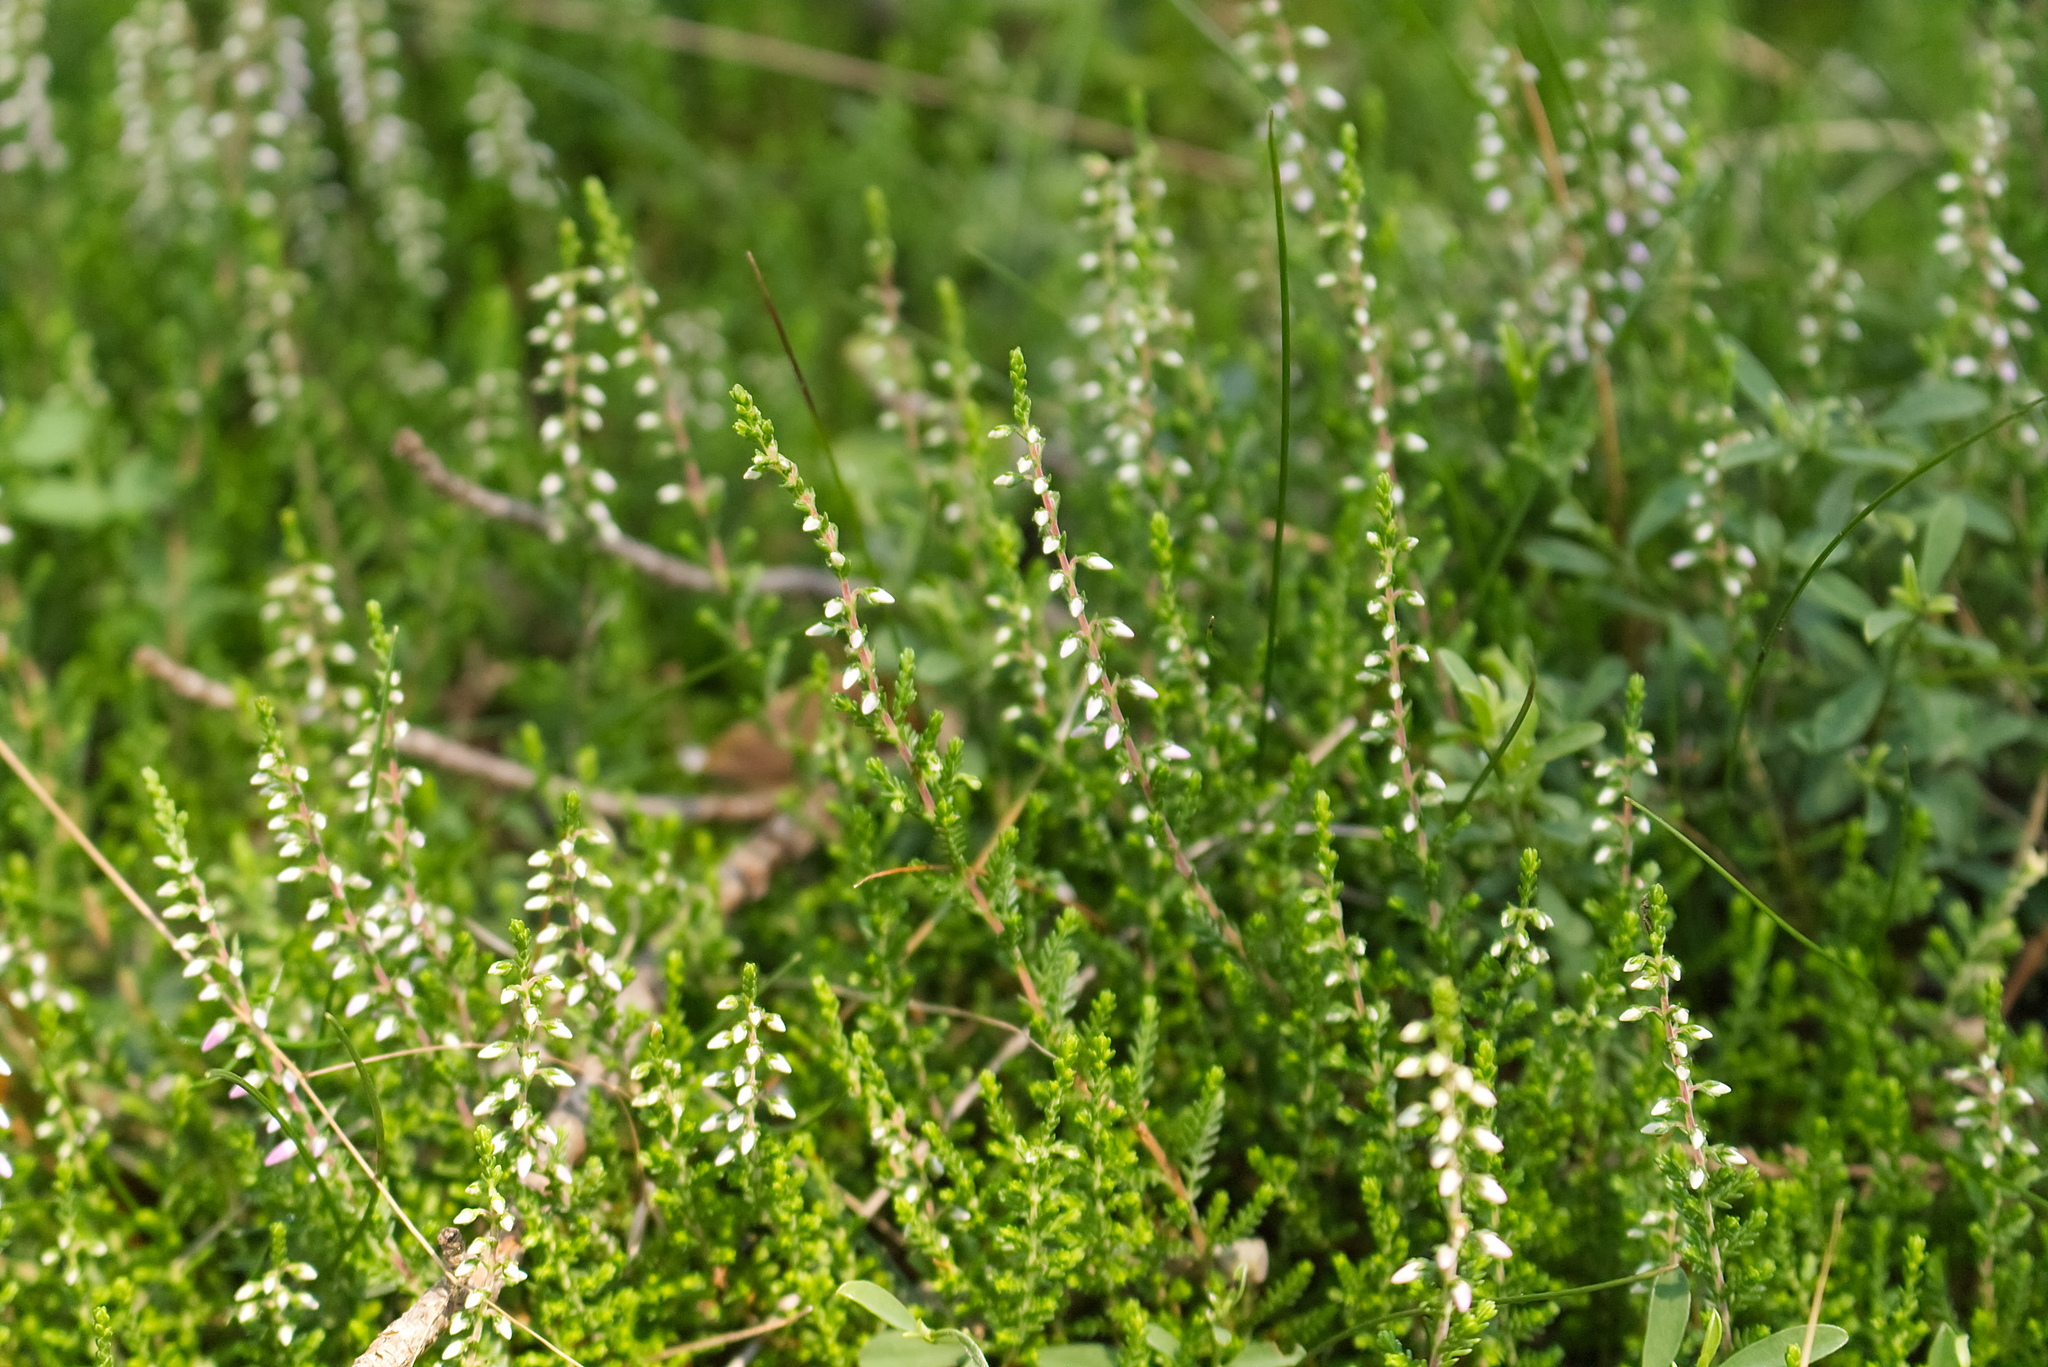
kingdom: Plantae
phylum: Tracheophyta
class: Magnoliopsida
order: Ericales
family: Ericaceae
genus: Calluna
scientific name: Calluna vulgaris
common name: Heather
